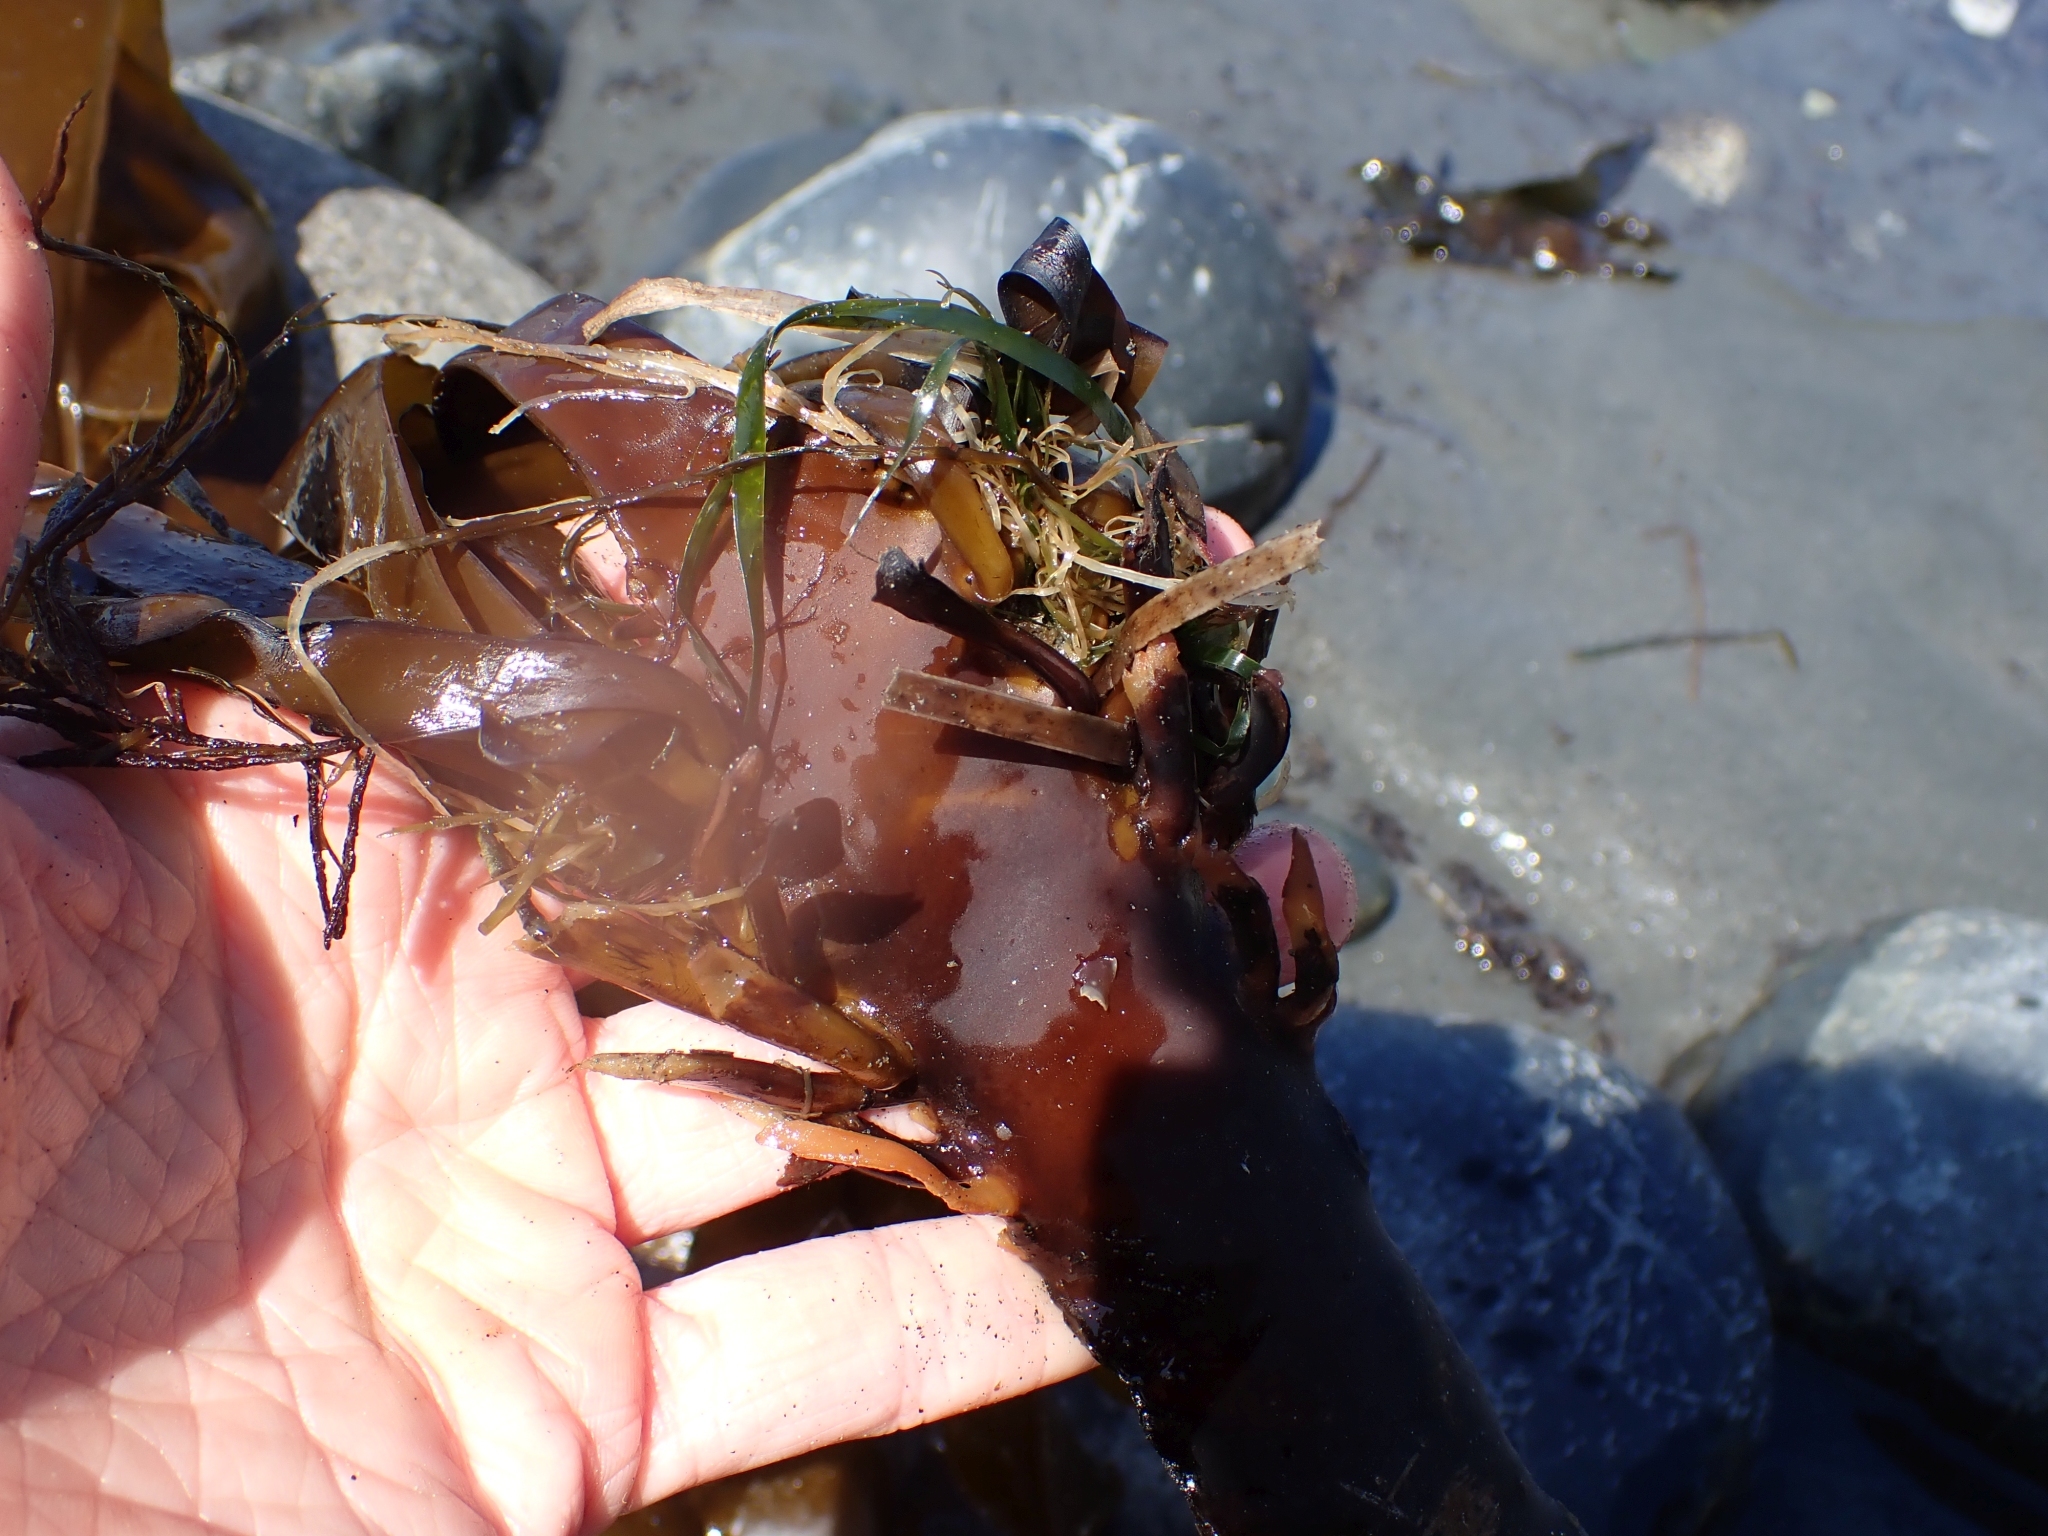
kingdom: Chromista
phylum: Ochrophyta
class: Phaeophyceae
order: Laminariales
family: Alariaceae
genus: Pterygophora
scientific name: Pterygophora californica
